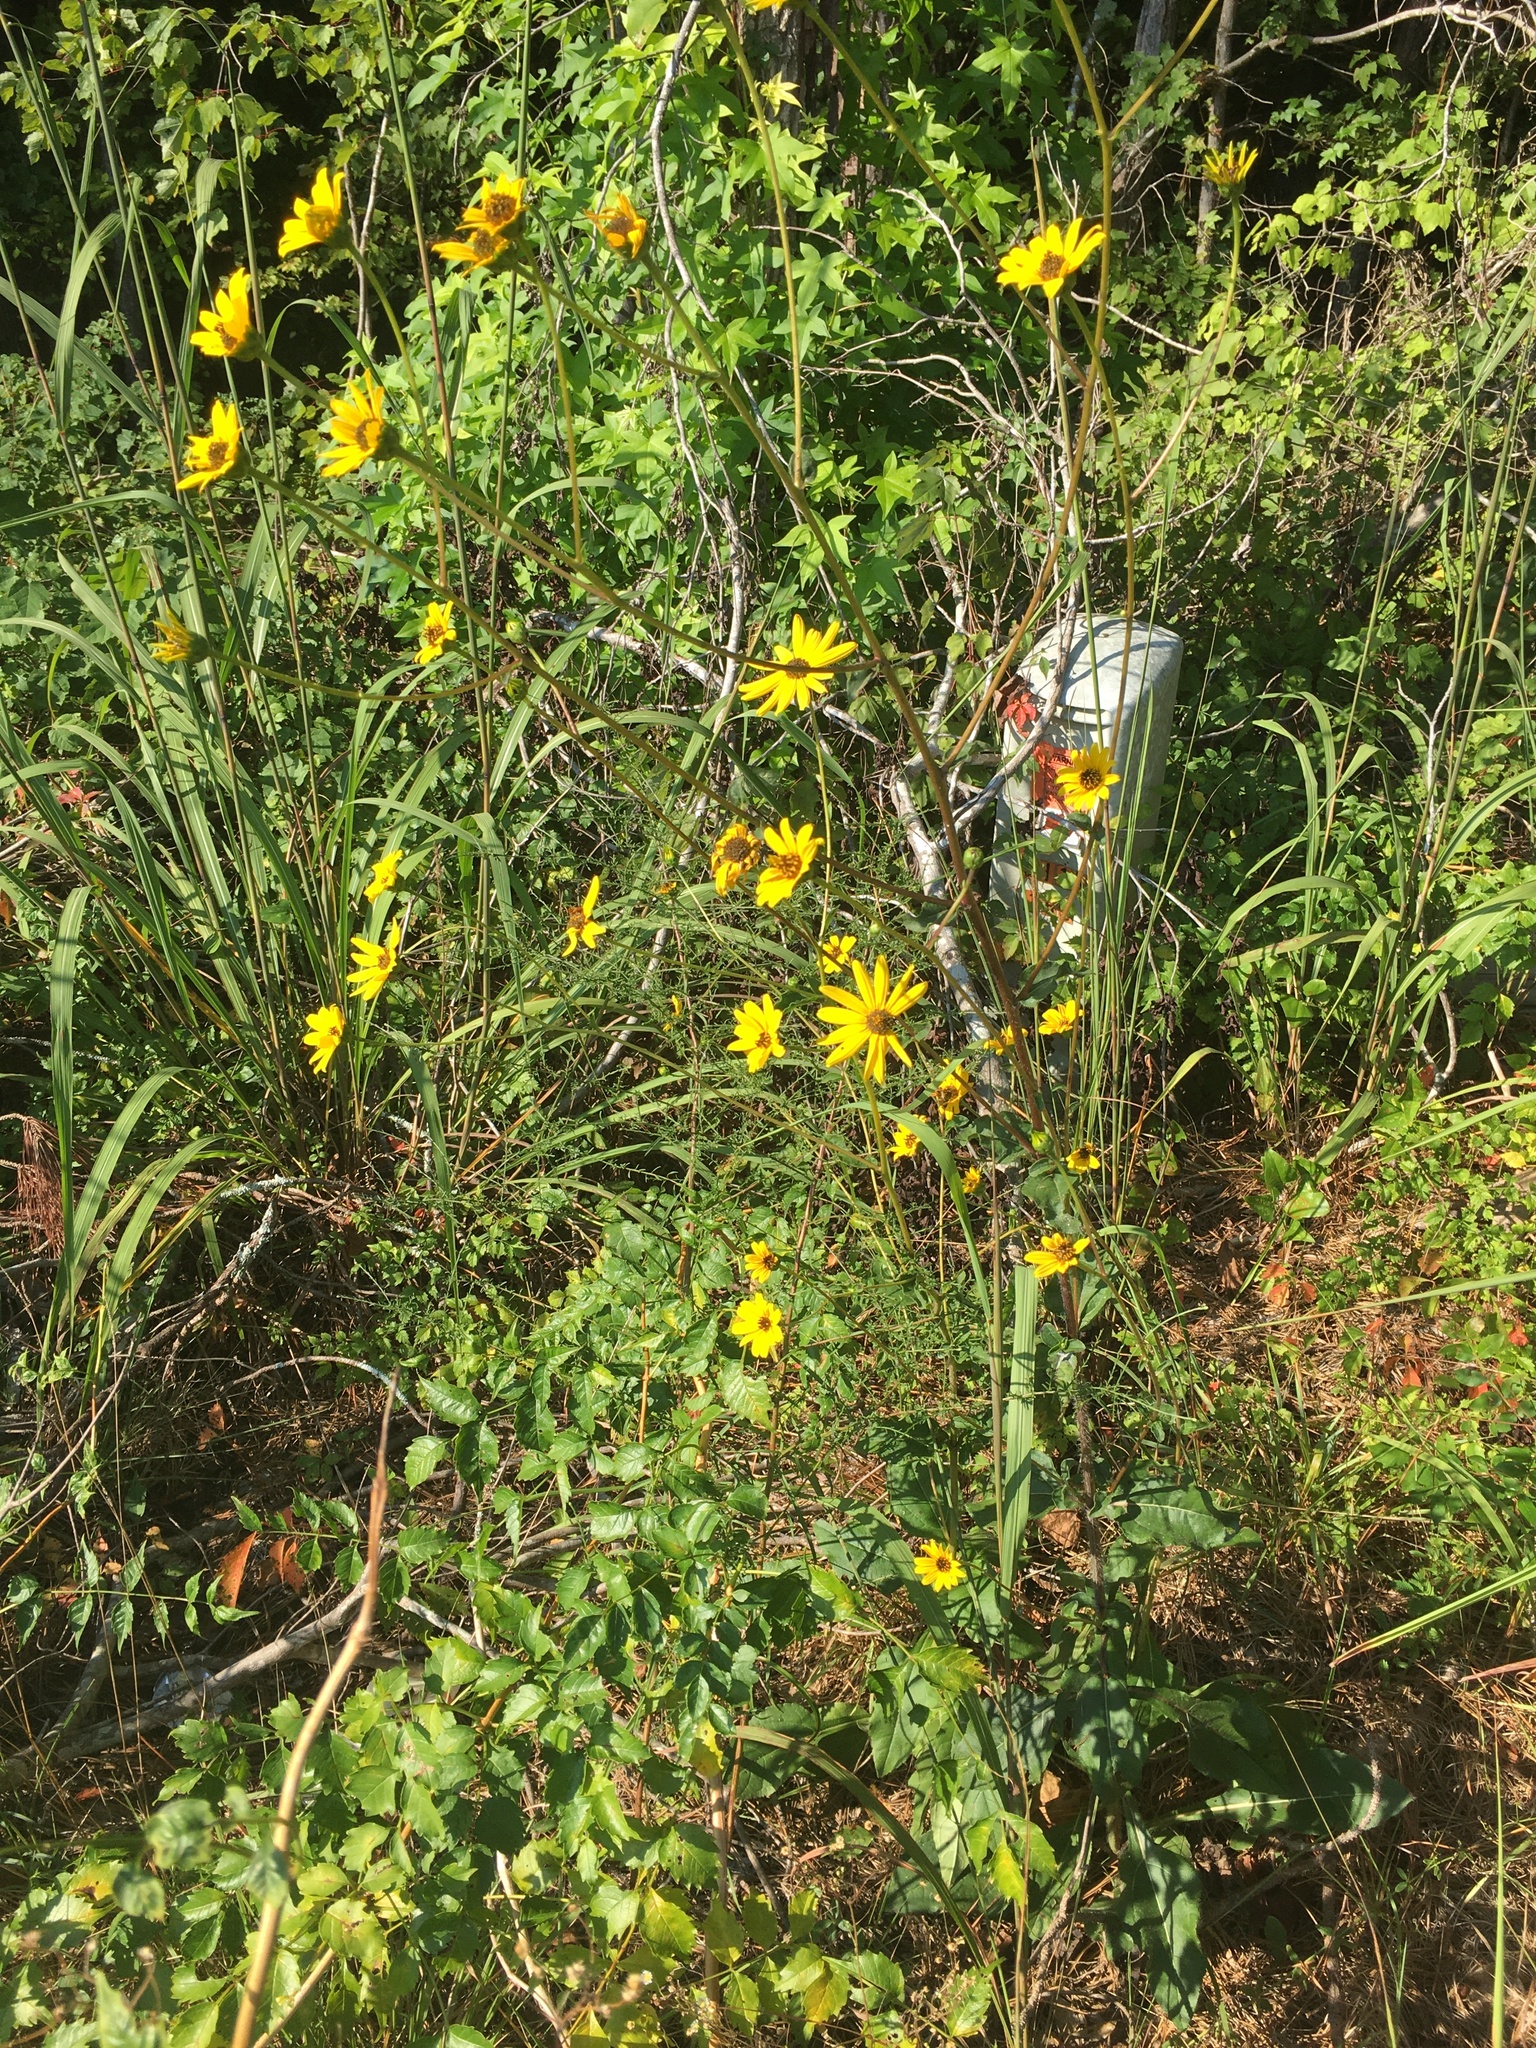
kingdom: Plantae
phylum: Tracheophyta
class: Magnoliopsida
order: Asterales
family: Asteraceae
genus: Helianthus
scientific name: Helianthus atrorubens
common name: Dark-eyed sunflower
